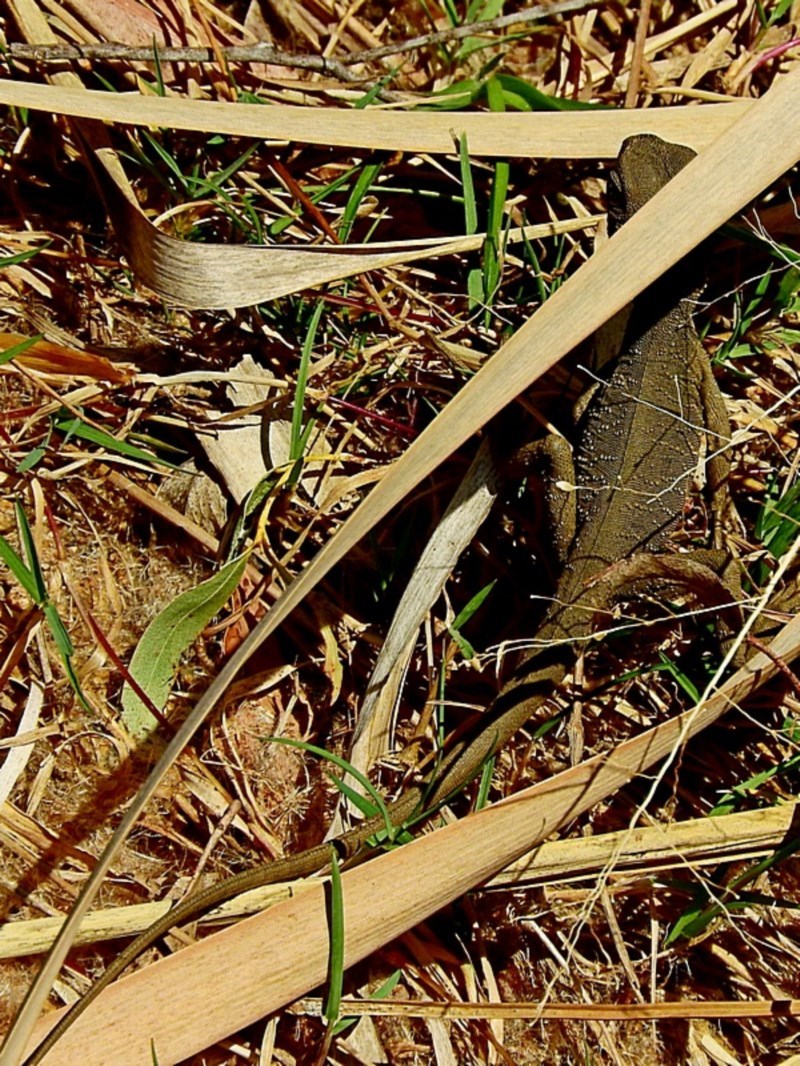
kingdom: Animalia
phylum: Chordata
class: Squamata
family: Agamidae
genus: Intellagama
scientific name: Intellagama lesueurii
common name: Eastern water dragon
